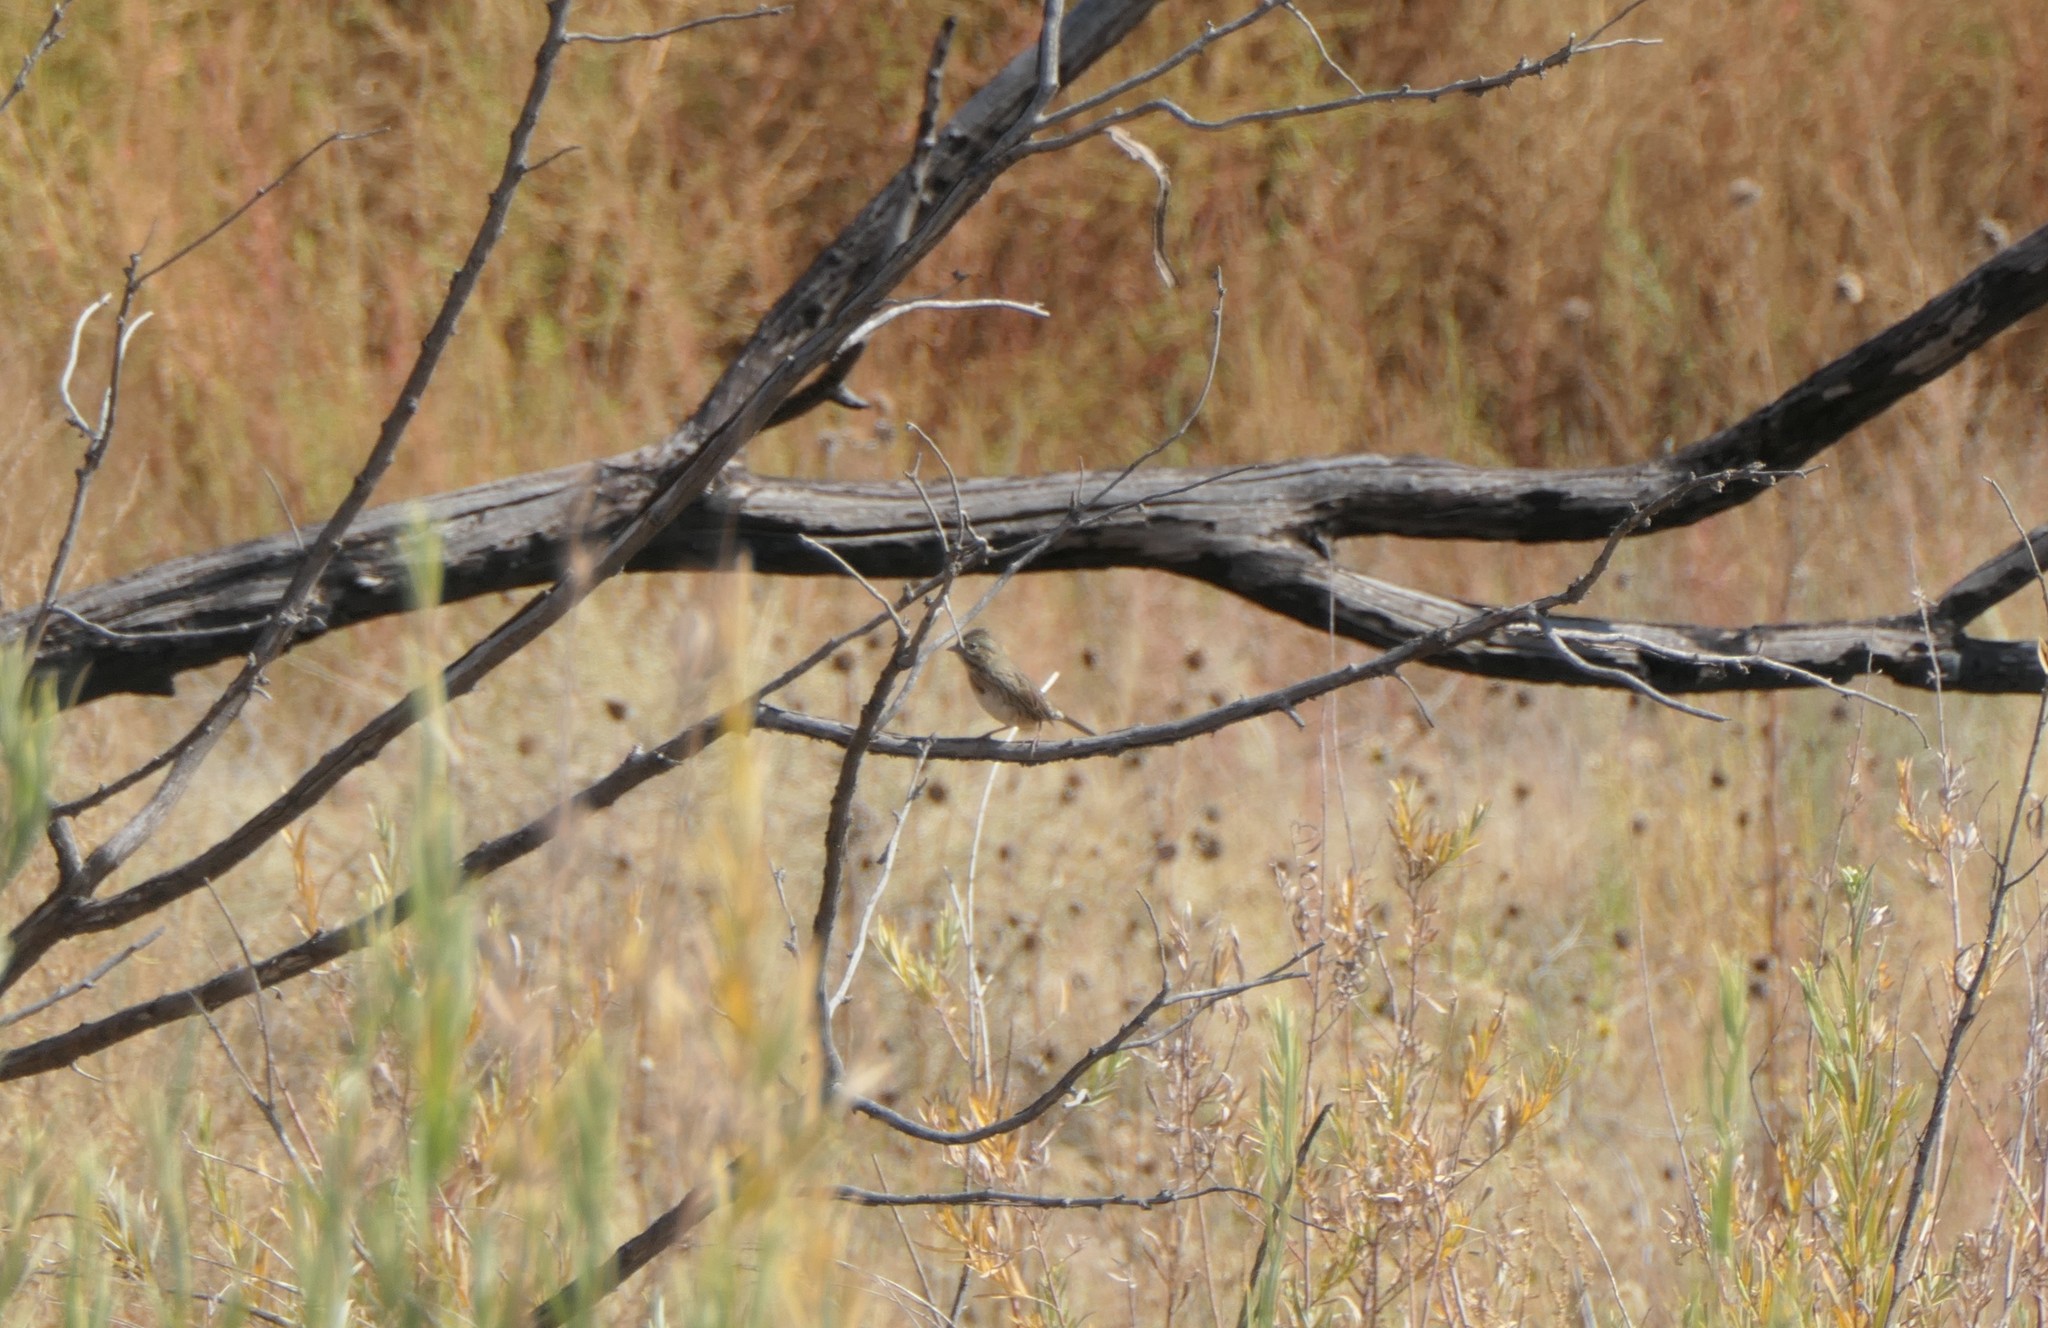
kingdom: Animalia
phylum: Chordata
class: Aves
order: Passeriformes
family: Passerellidae
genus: Melospiza
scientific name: Melospiza lincolnii
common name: Lincoln's sparrow
